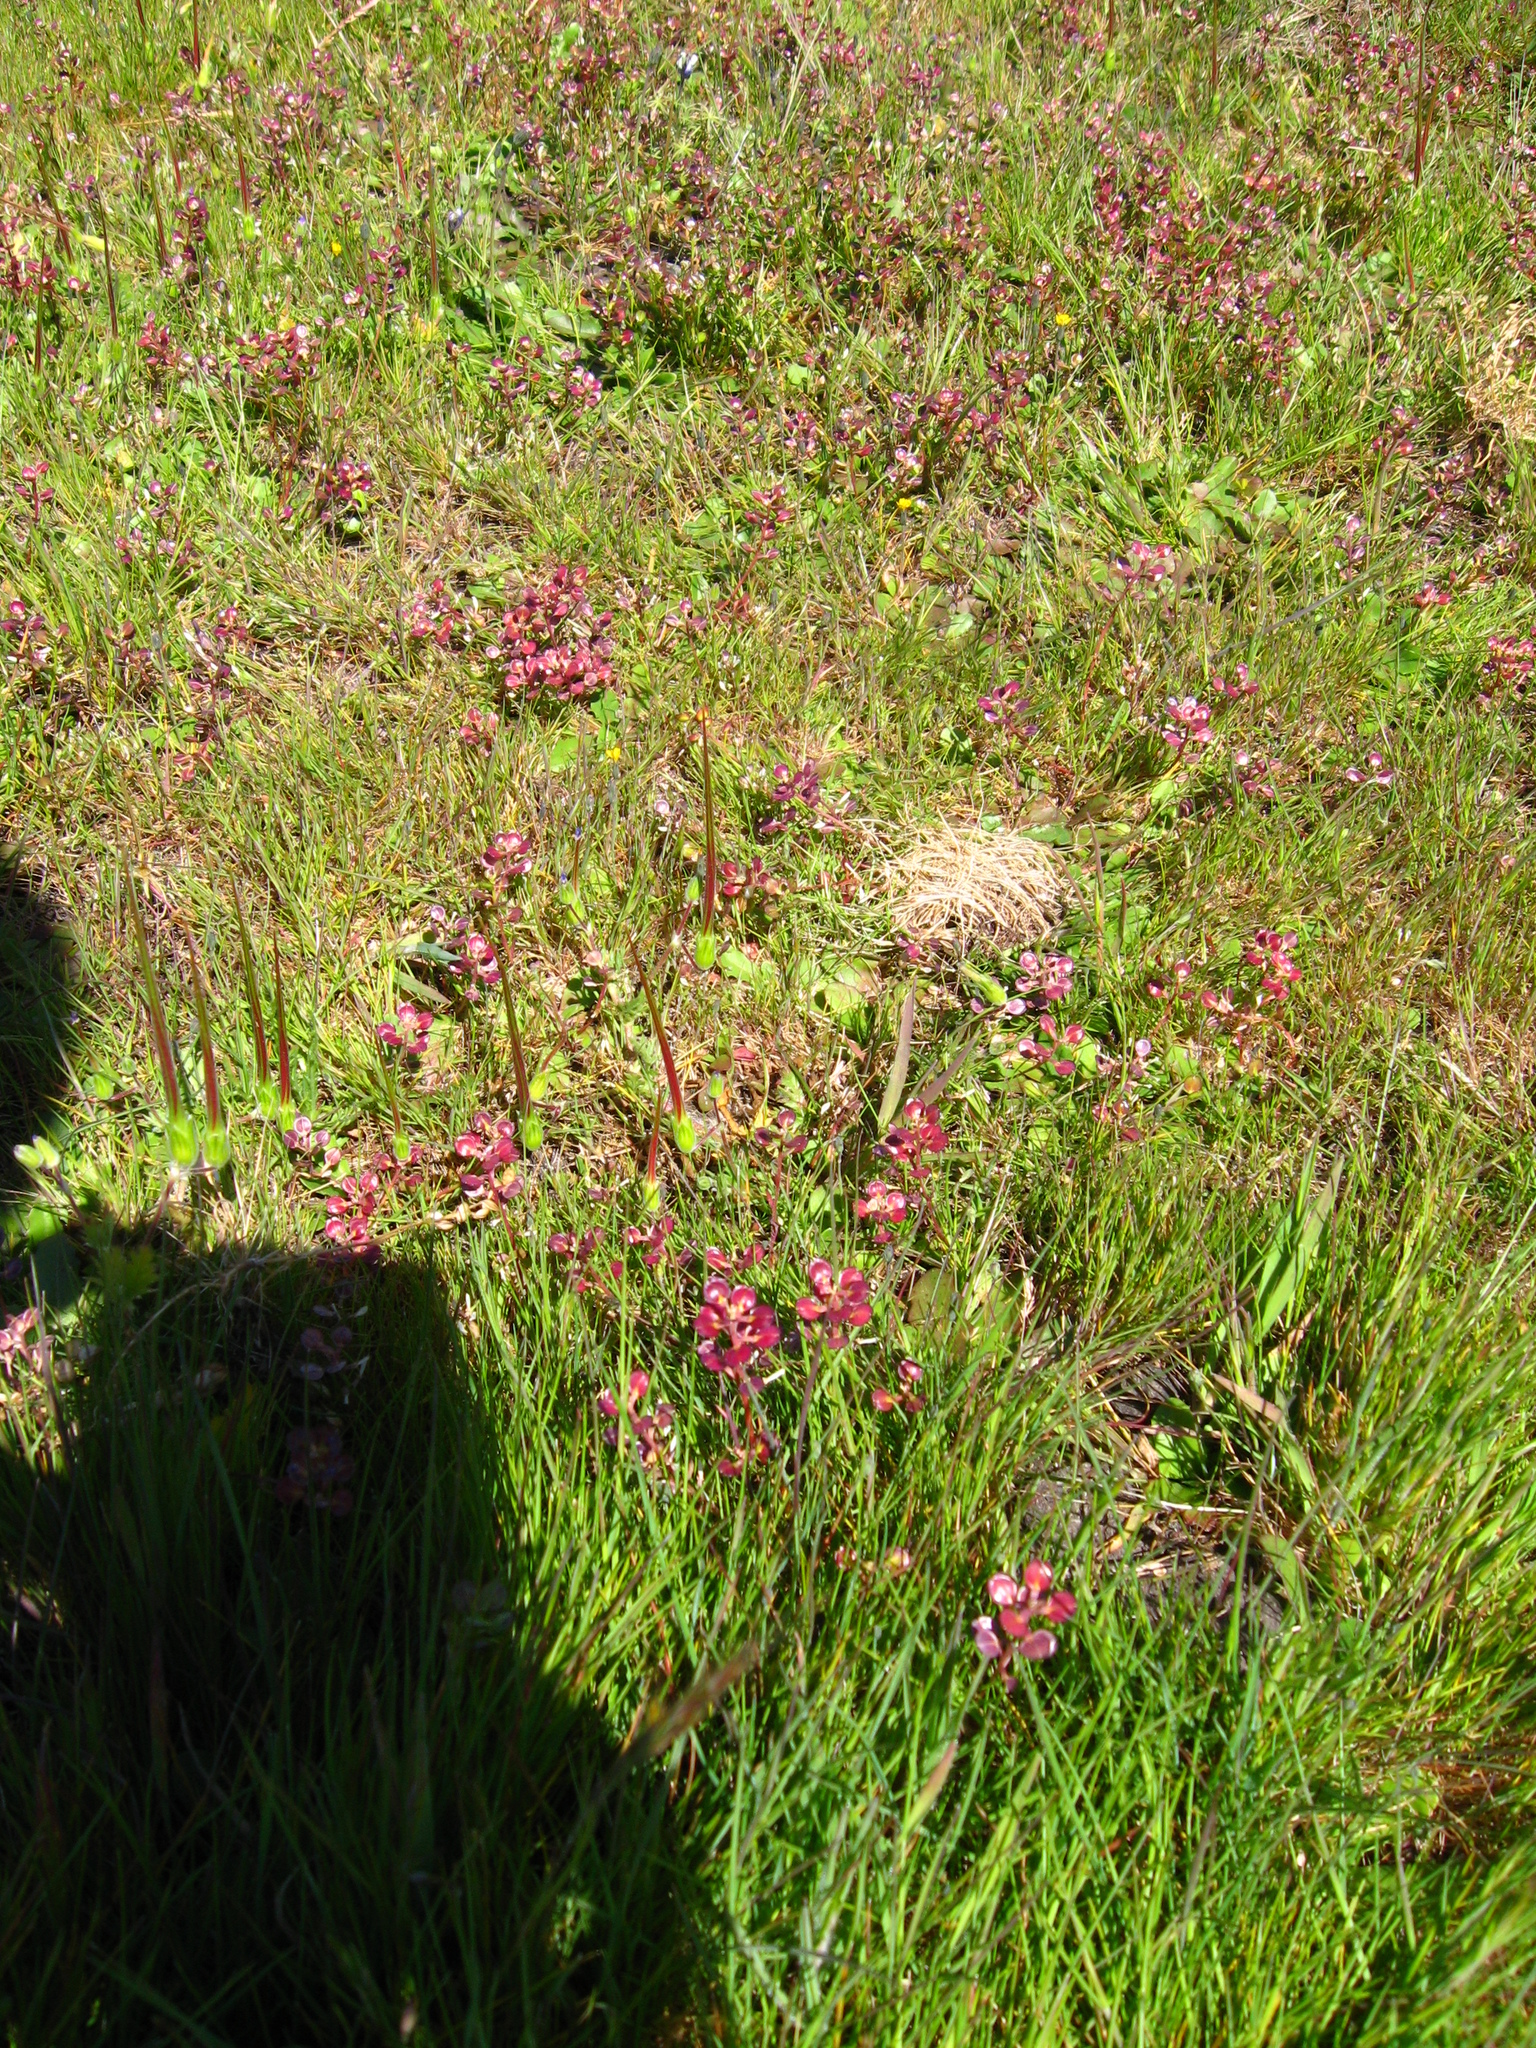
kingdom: Plantae
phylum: Tracheophyta
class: Magnoliopsida
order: Brassicales
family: Brassicaceae
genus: Lepidium
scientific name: Lepidium nitidum
